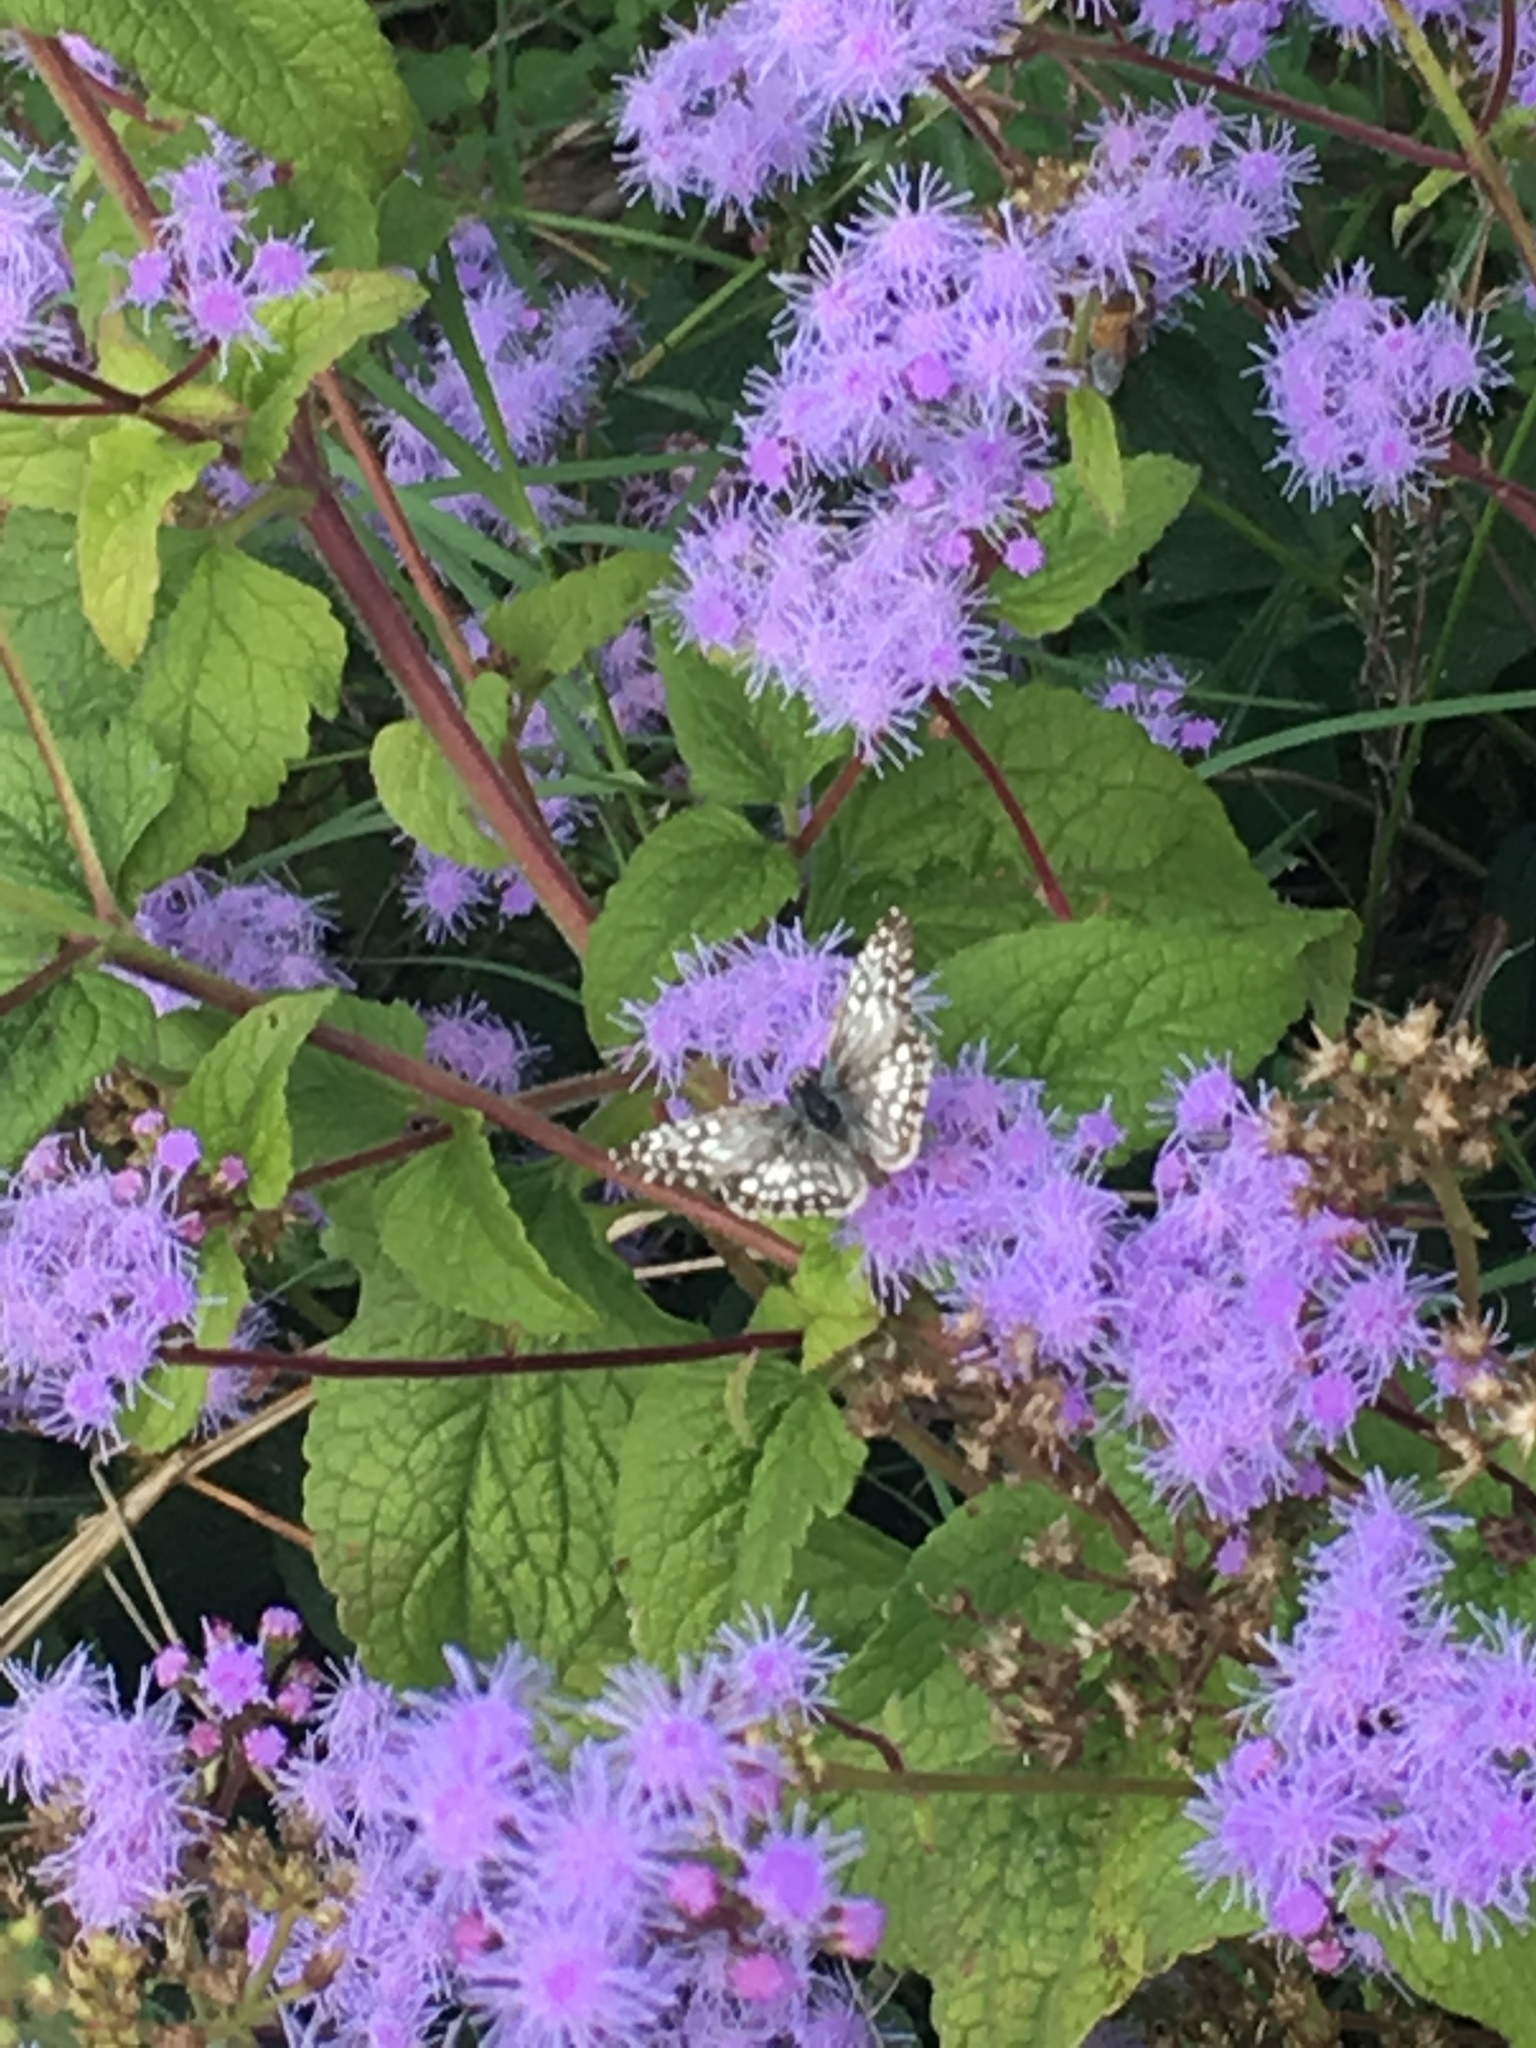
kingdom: Animalia
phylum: Arthropoda
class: Insecta
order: Lepidoptera
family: Hesperiidae
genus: Pyrgus
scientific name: Pyrgus oileus
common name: Tropical checkered-skipper
